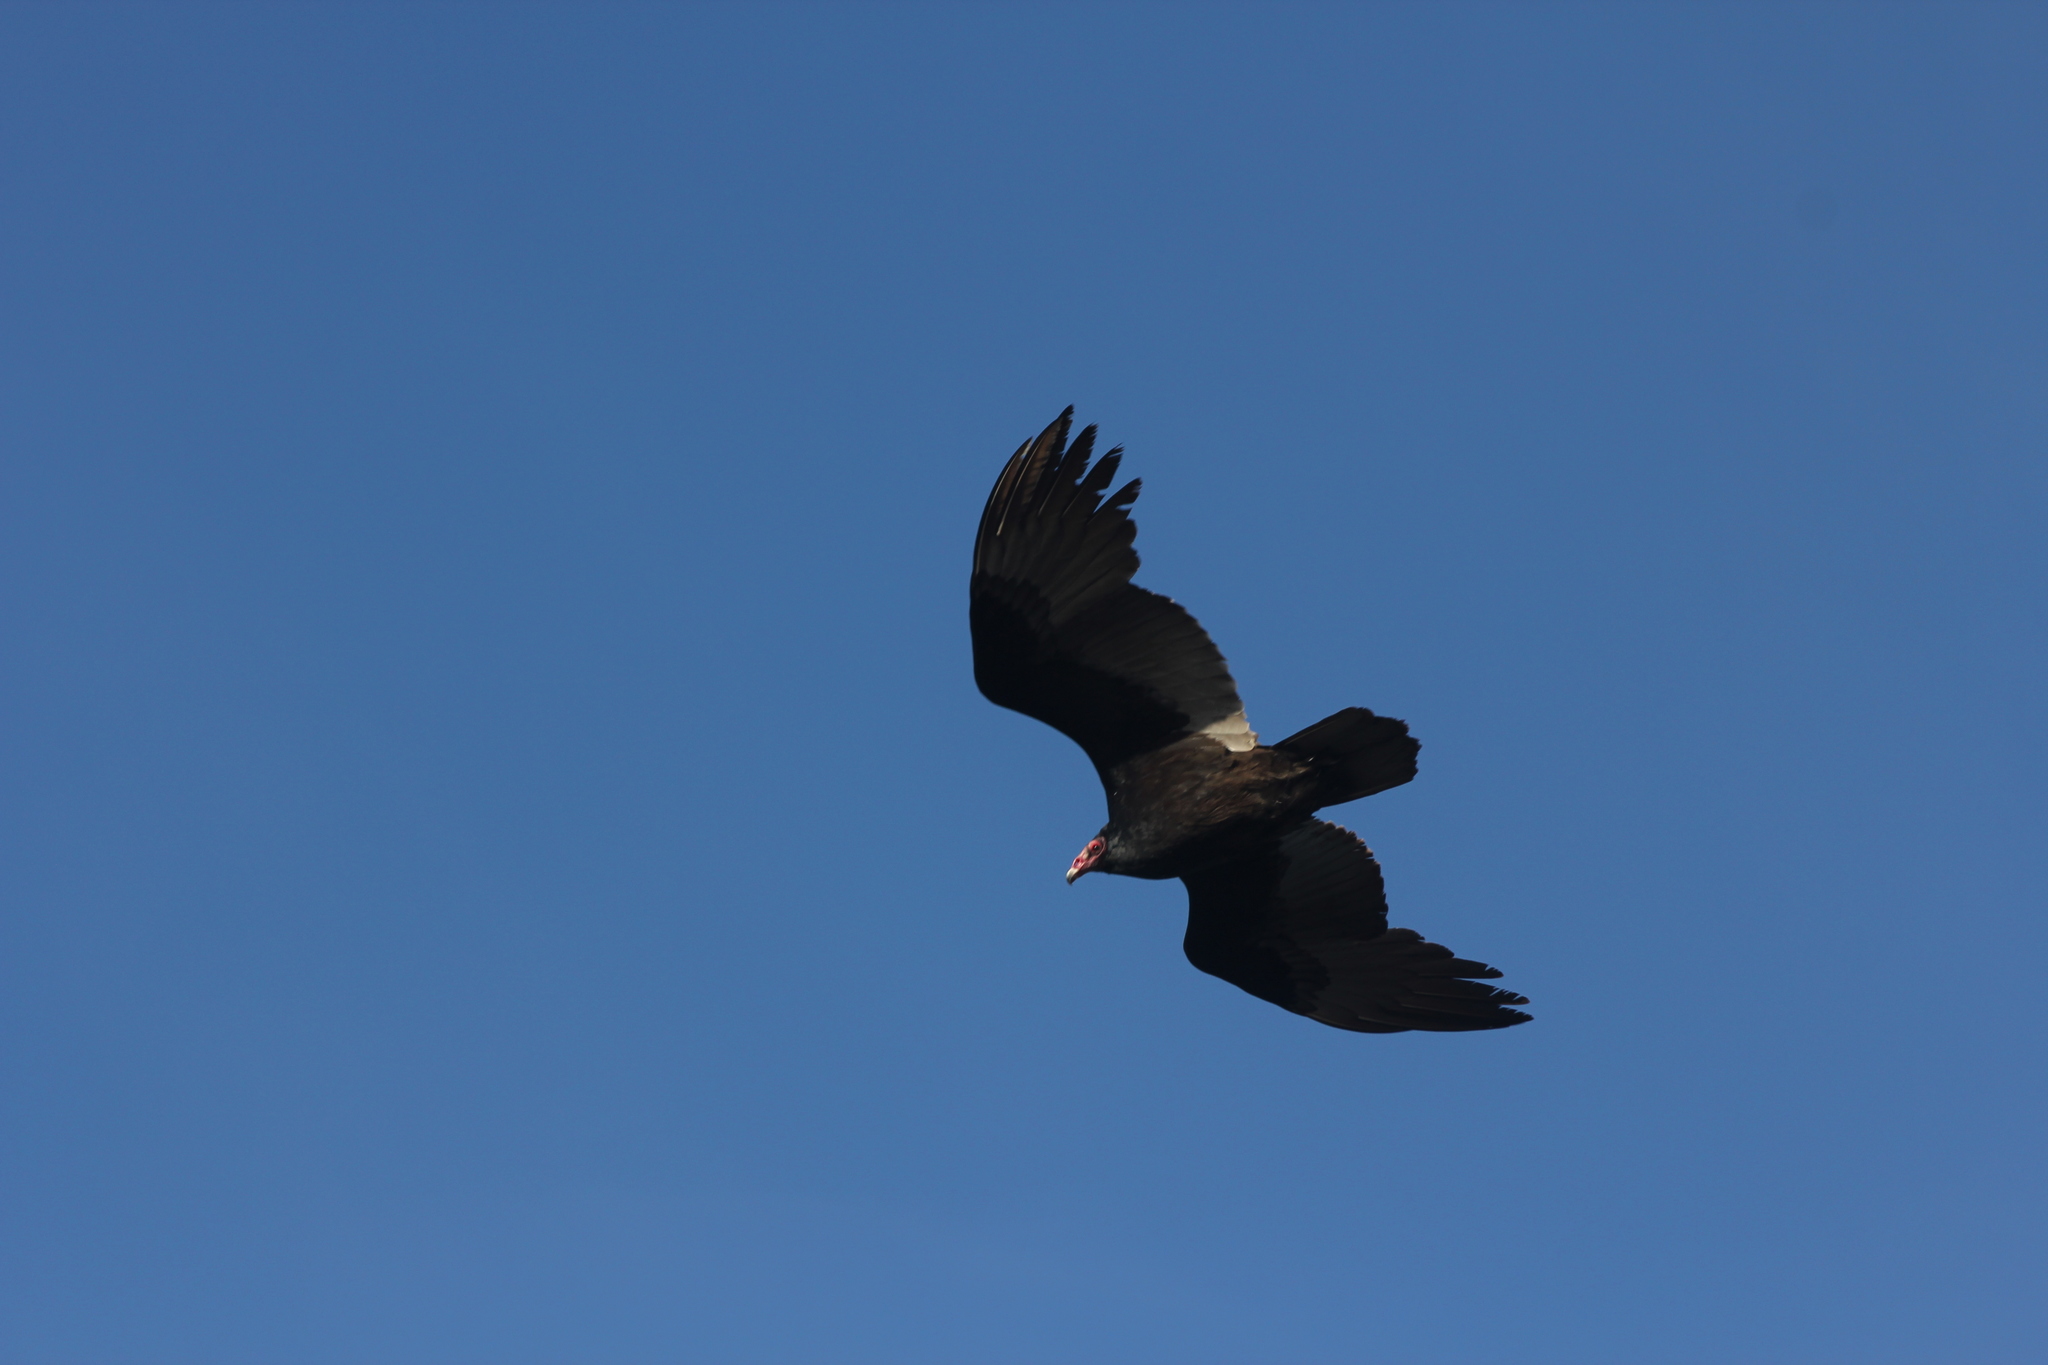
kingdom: Animalia
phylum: Chordata
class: Aves
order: Accipitriformes
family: Cathartidae
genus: Cathartes
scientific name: Cathartes aura
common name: Turkey vulture
